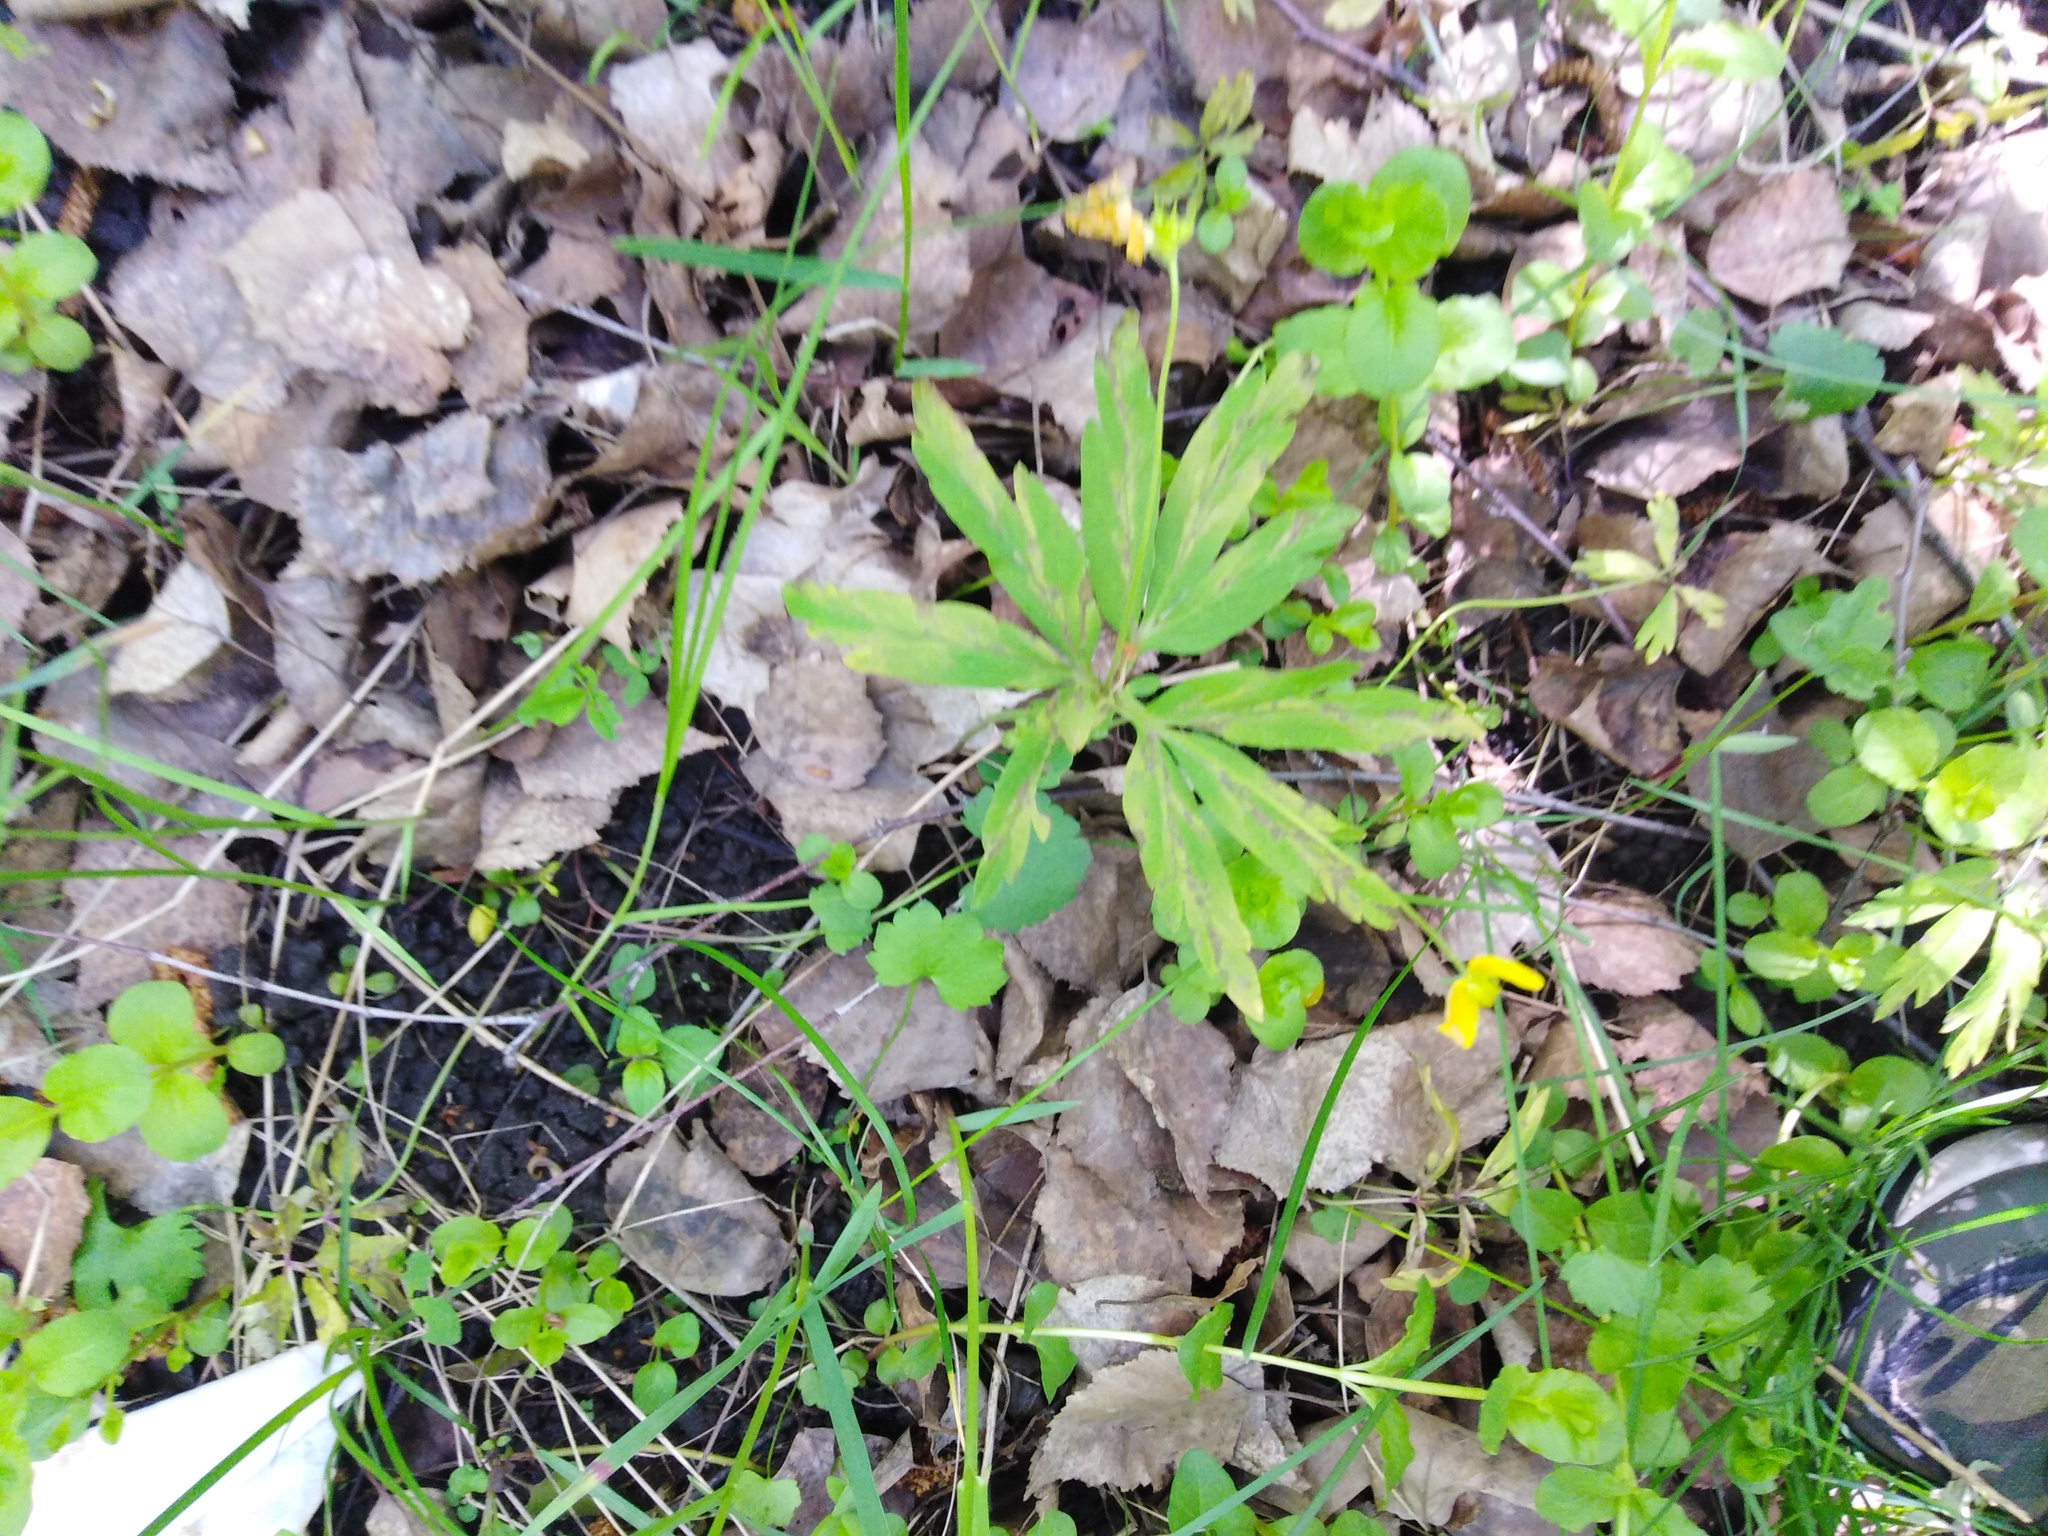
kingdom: Plantae
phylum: Tracheophyta
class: Magnoliopsida
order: Ranunculales
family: Ranunculaceae
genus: Anemone
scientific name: Anemone ranunculoides
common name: Yellow anemone
